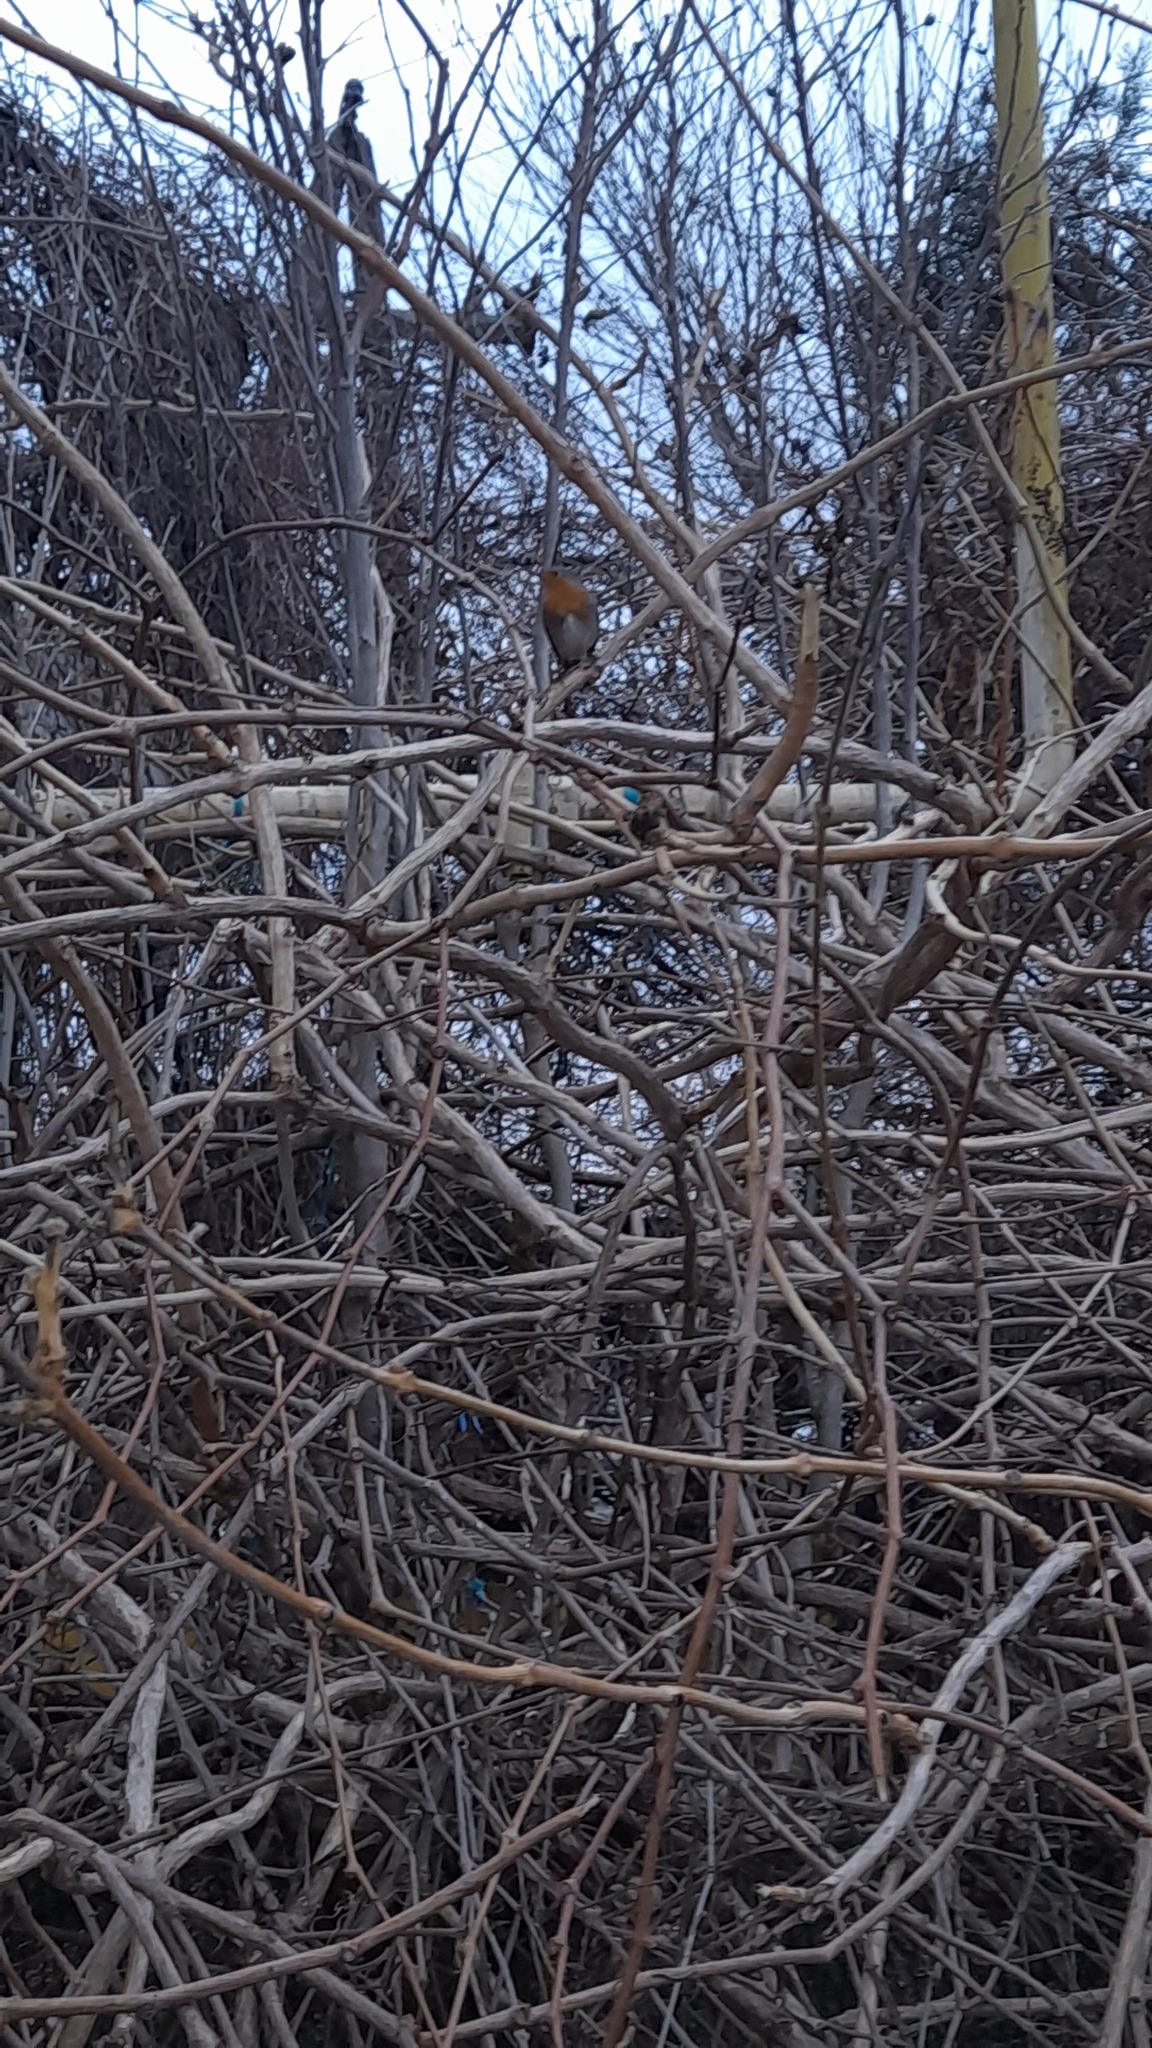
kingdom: Animalia
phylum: Chordata
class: Aves
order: Passeriformes
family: Muscicapidae
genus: Erithacus
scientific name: Erithacus rubecula
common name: European robin
